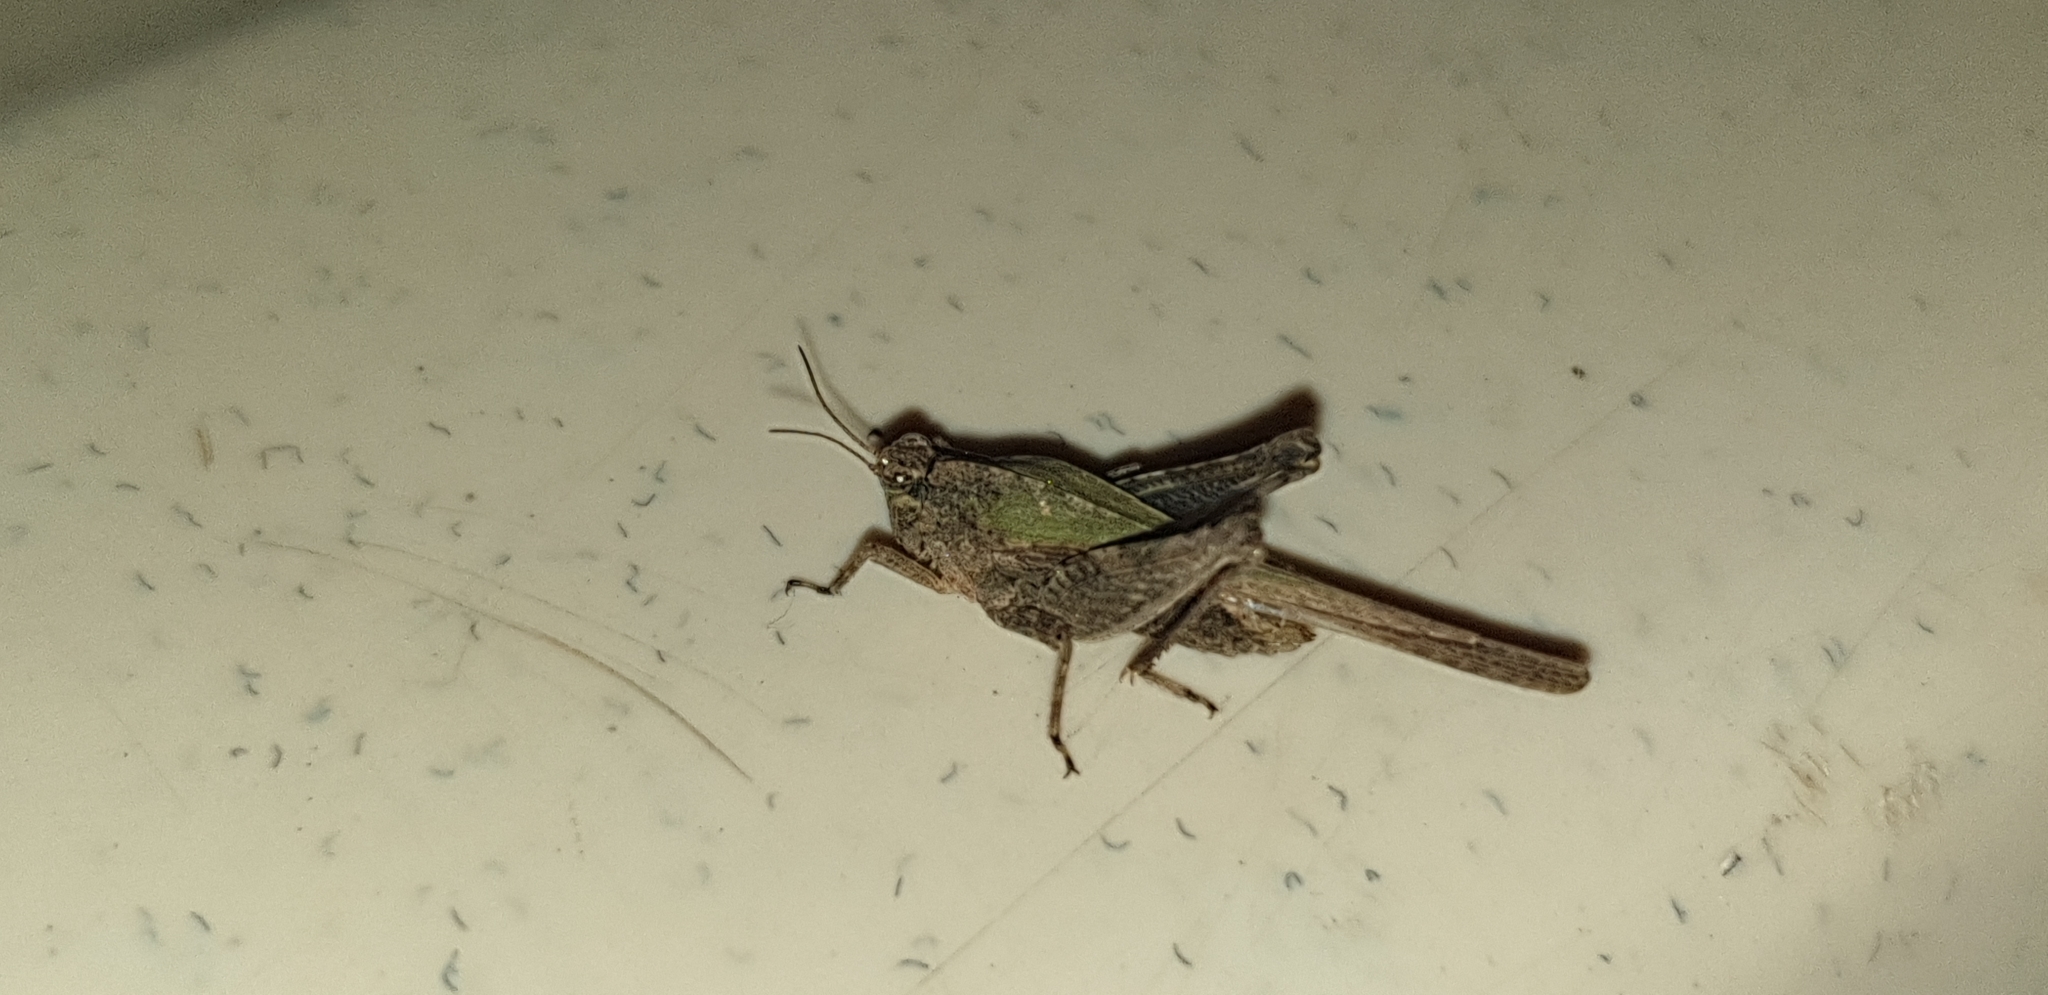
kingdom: Animalia
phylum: Arthropoda
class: Insecta
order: Orthoptera
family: Tetrigidae
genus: Hedotettix
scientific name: Hedotettix punctatus
